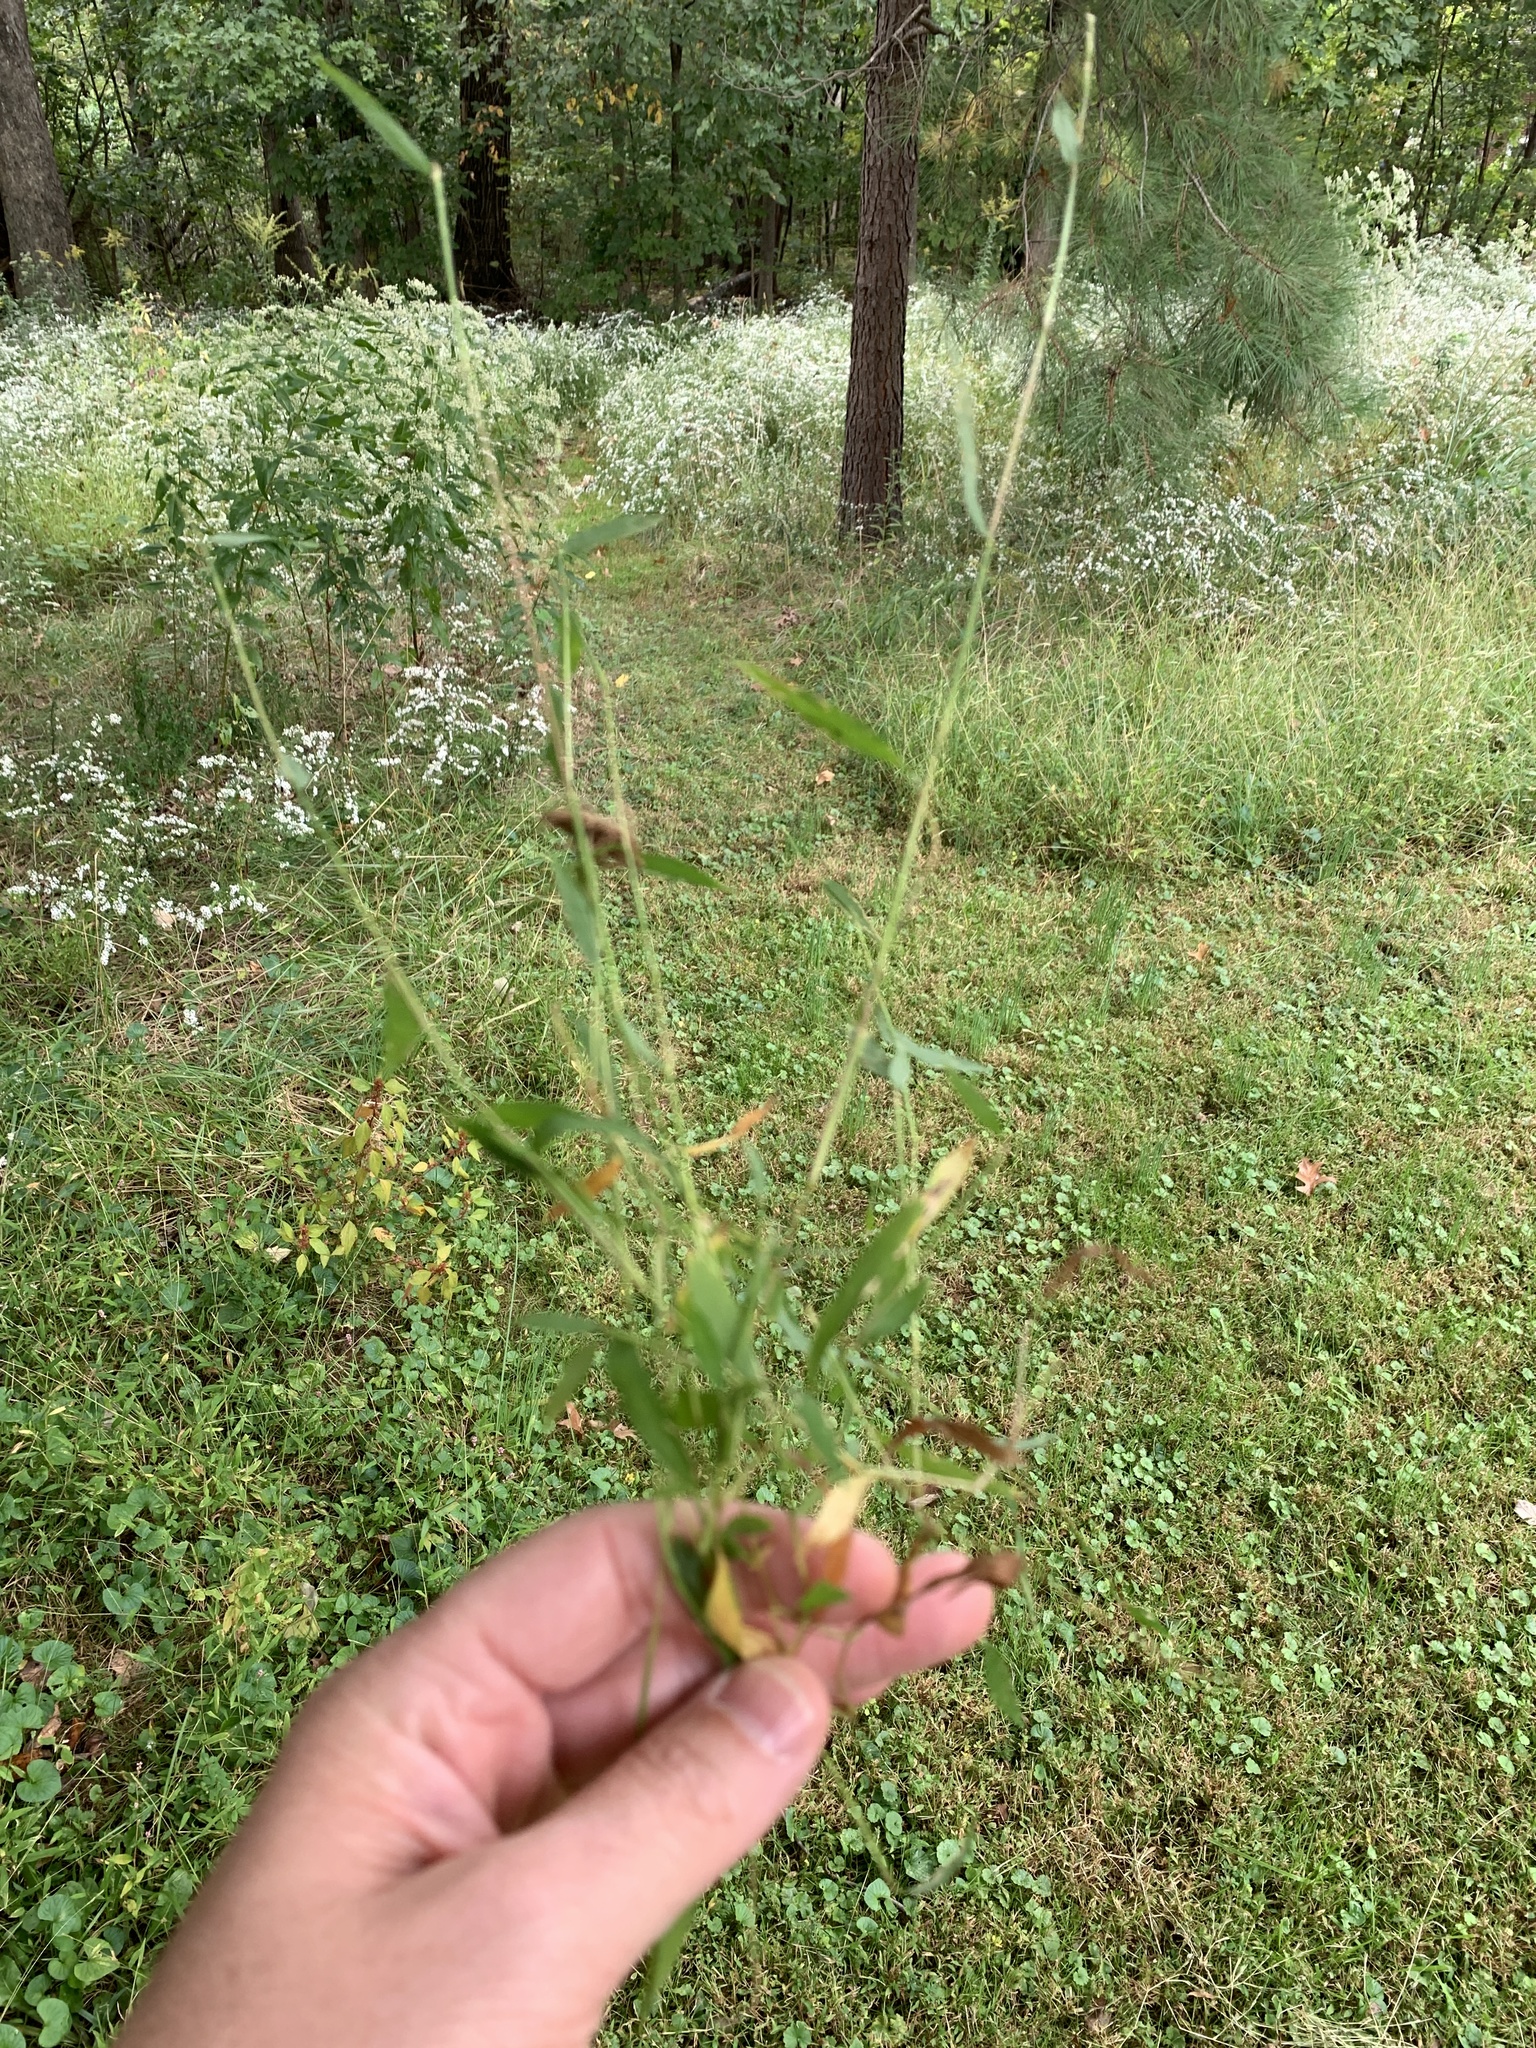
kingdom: Plantae
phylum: Tracheophyta
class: Liliopsida
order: Poales
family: Poaceae
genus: Microstegium
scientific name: Microstegium vimineum
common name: Japanese stiltgrass
